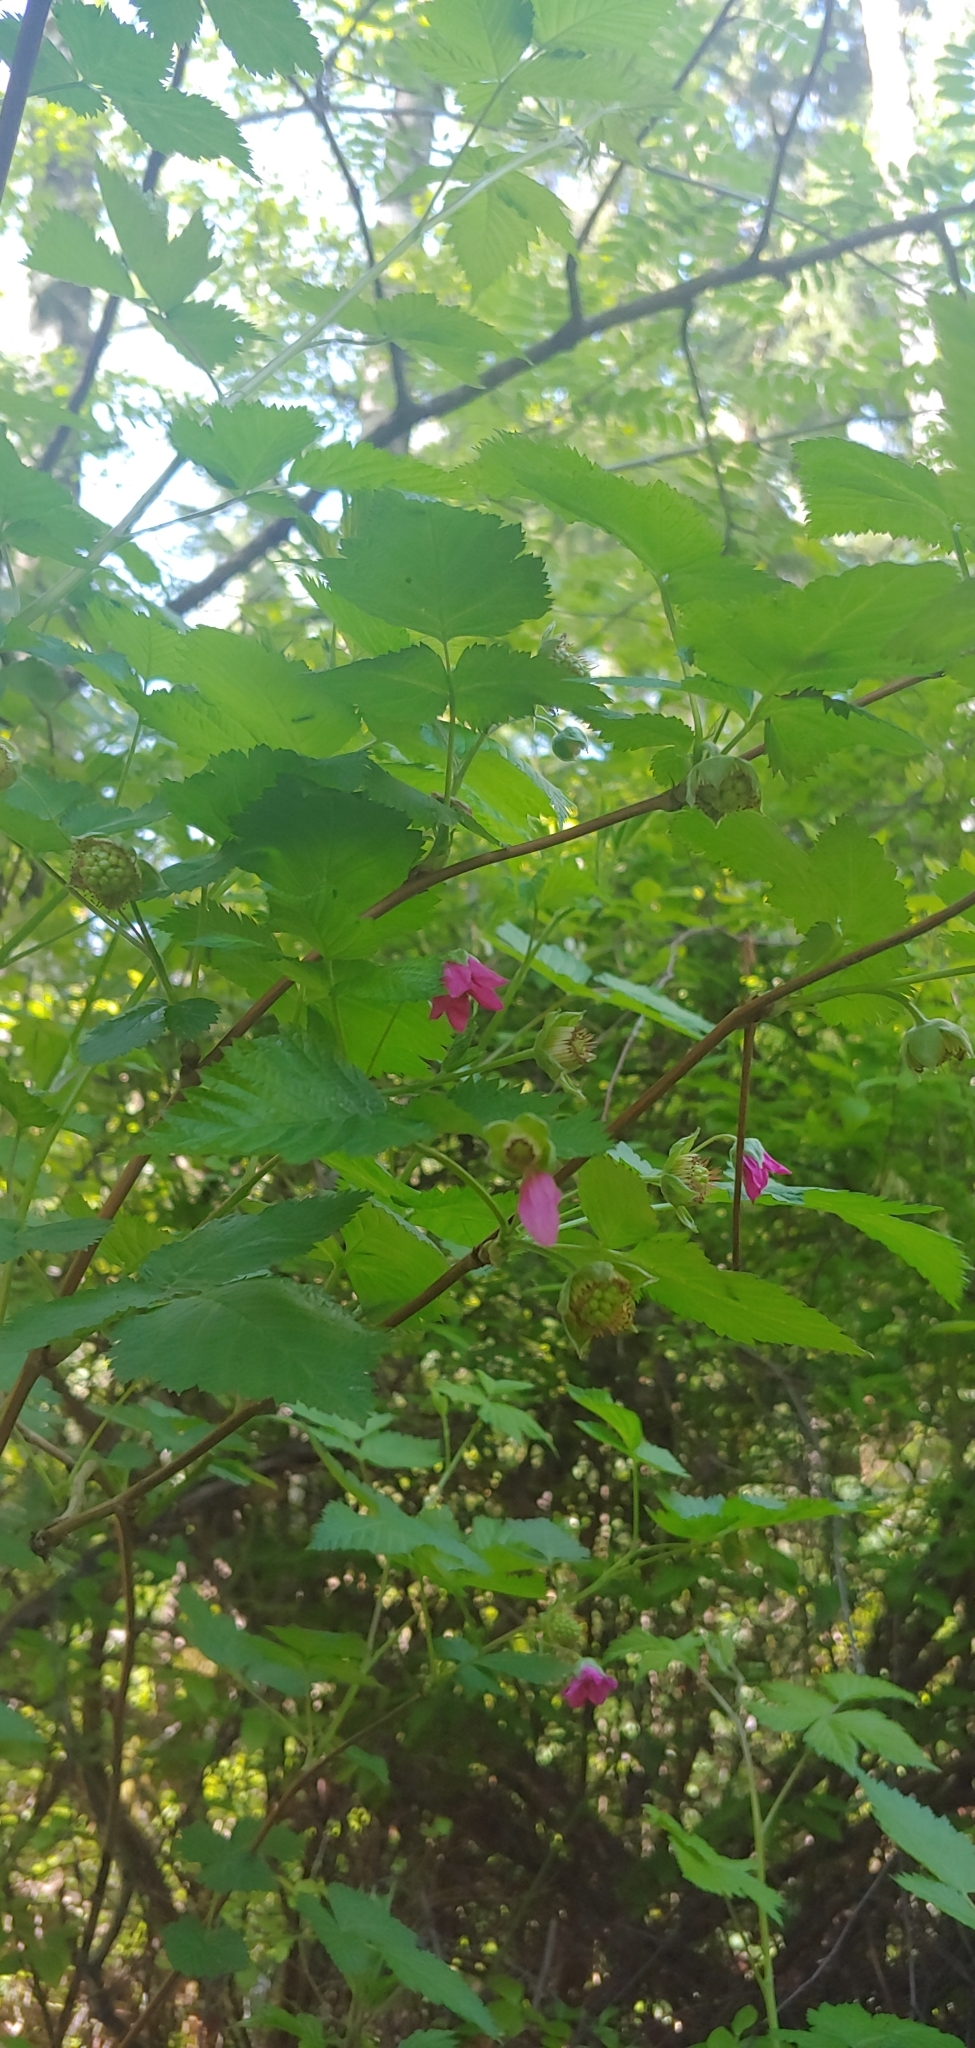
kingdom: Plantae
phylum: Tracheophyta
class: Magnoliopsida
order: Rosales
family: Rosaceae
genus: Rubus
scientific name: Rubus spectabilis
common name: Salmonberry
